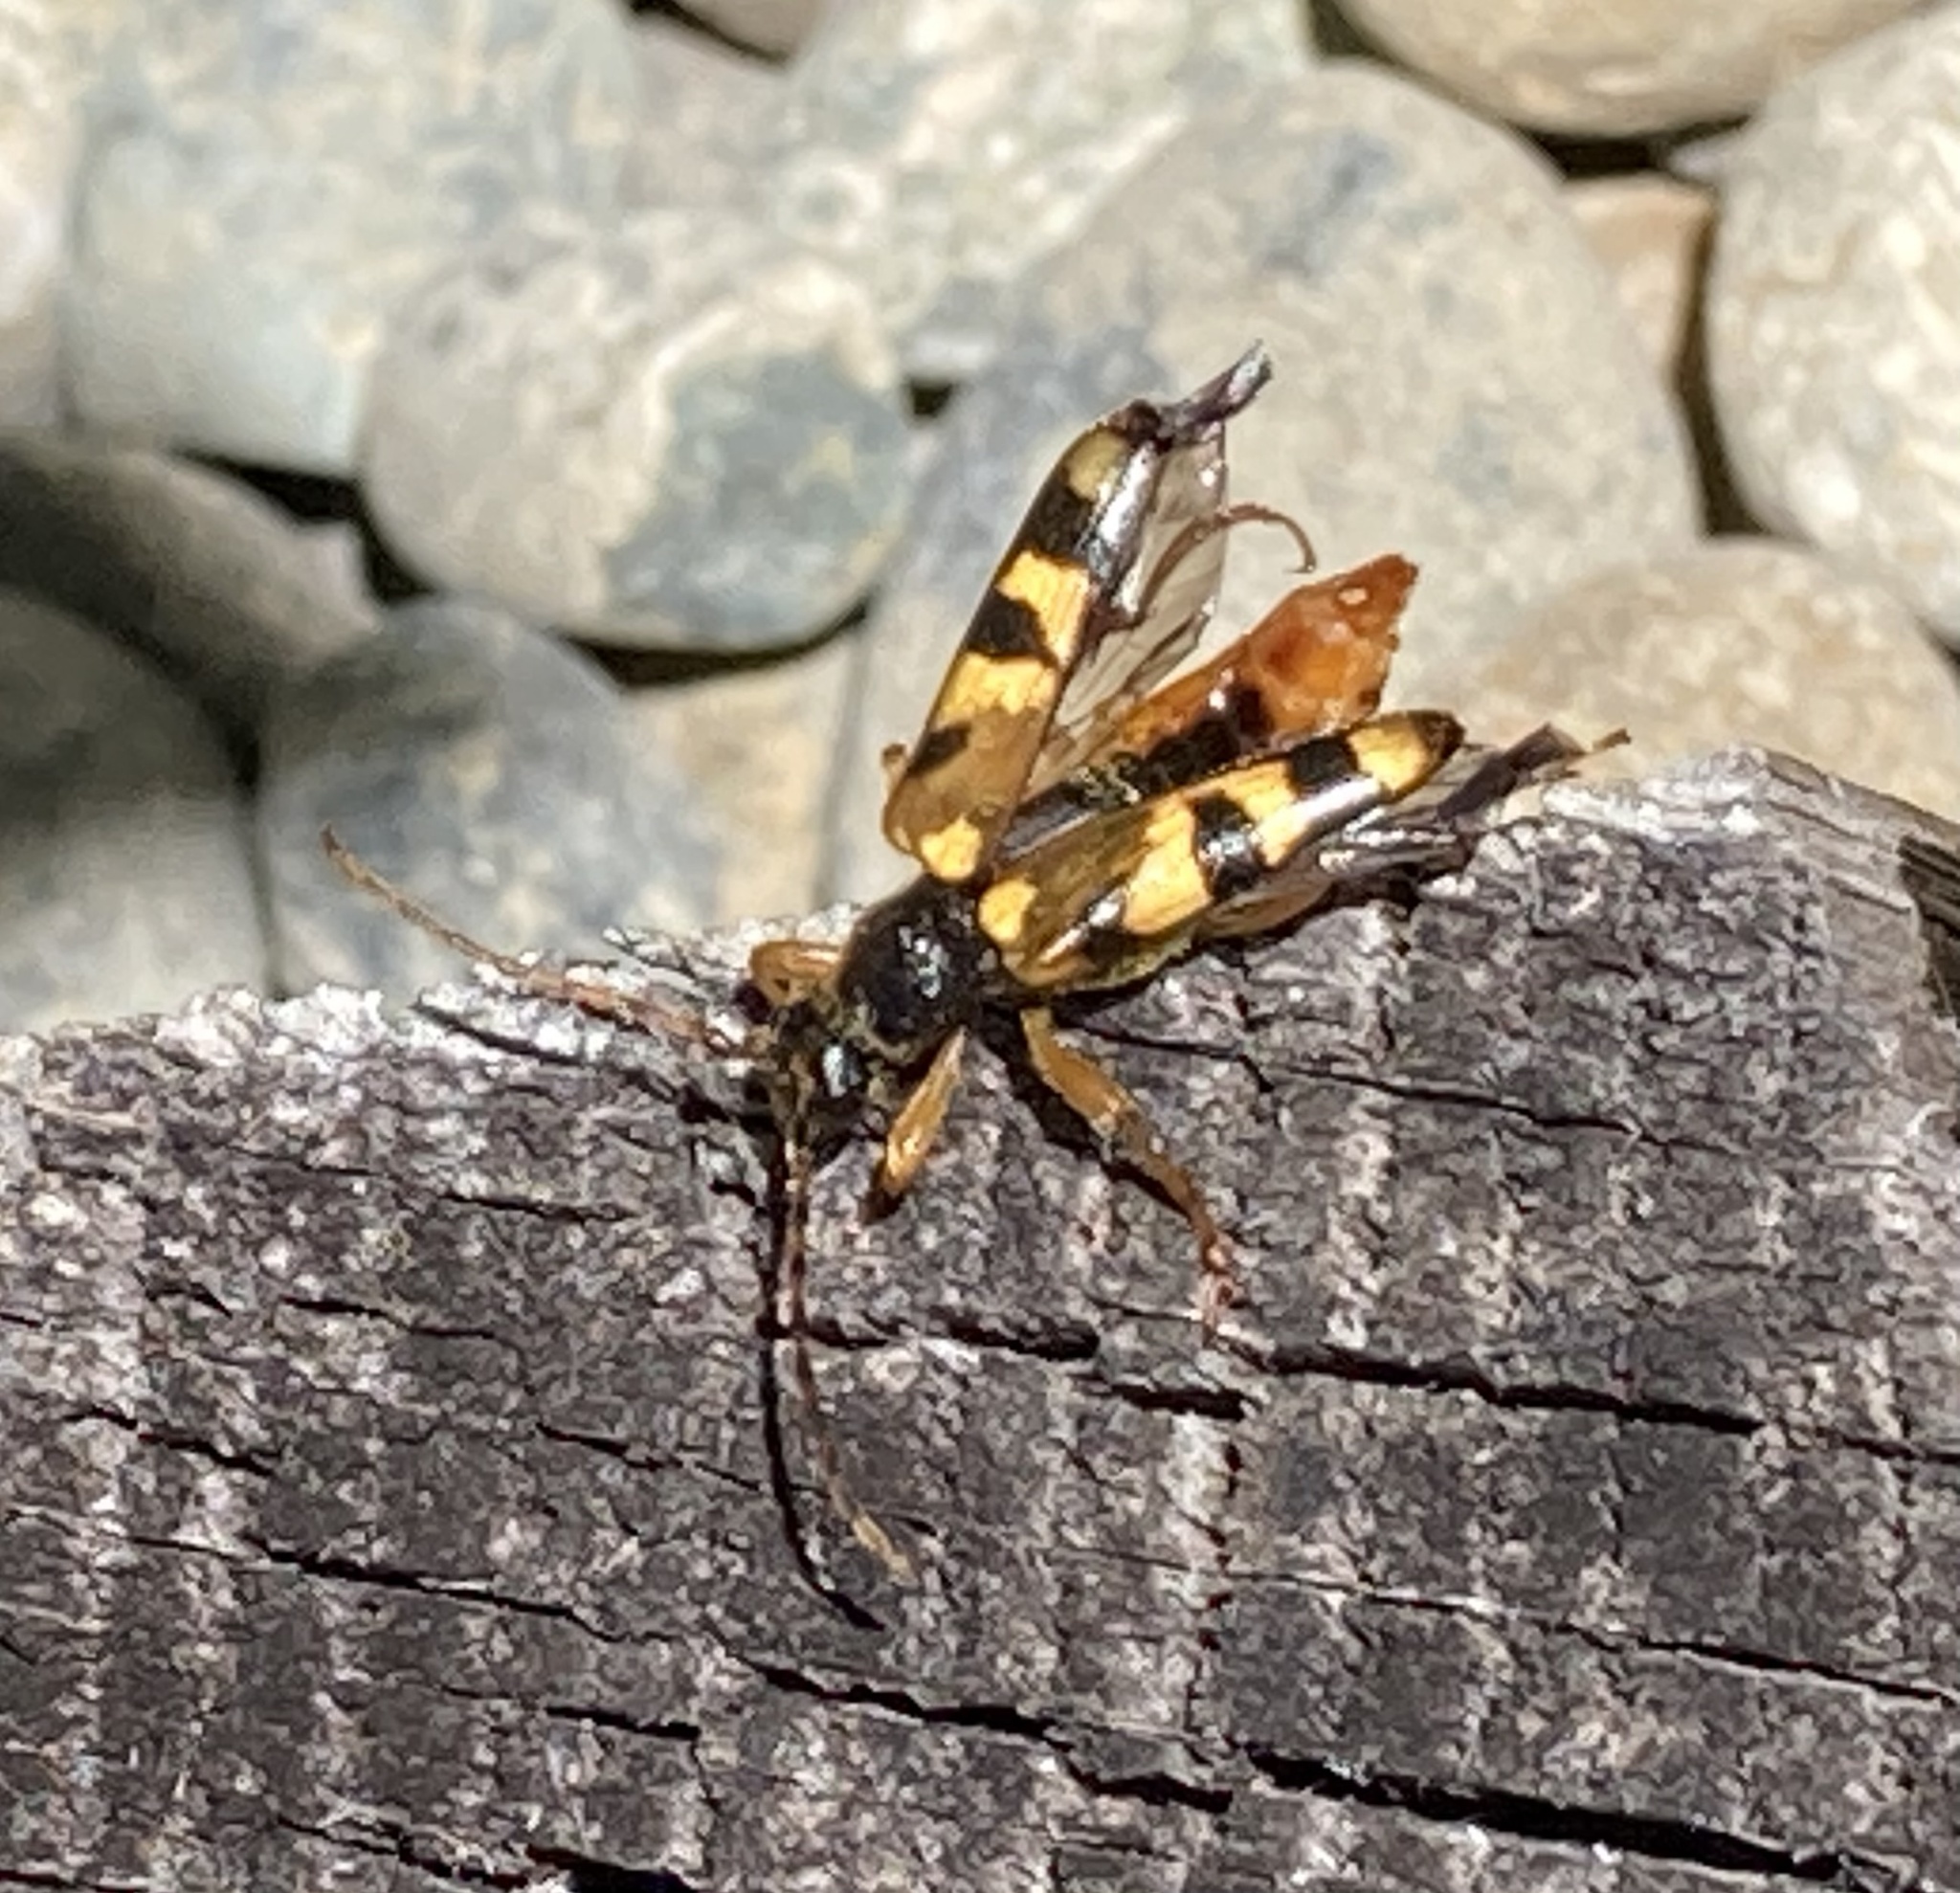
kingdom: Animalia
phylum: Arthropoda
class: Insecta
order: Coleoptera
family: Cerambycidae
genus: Xestoleptura
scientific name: Xestoleptura crassipes
